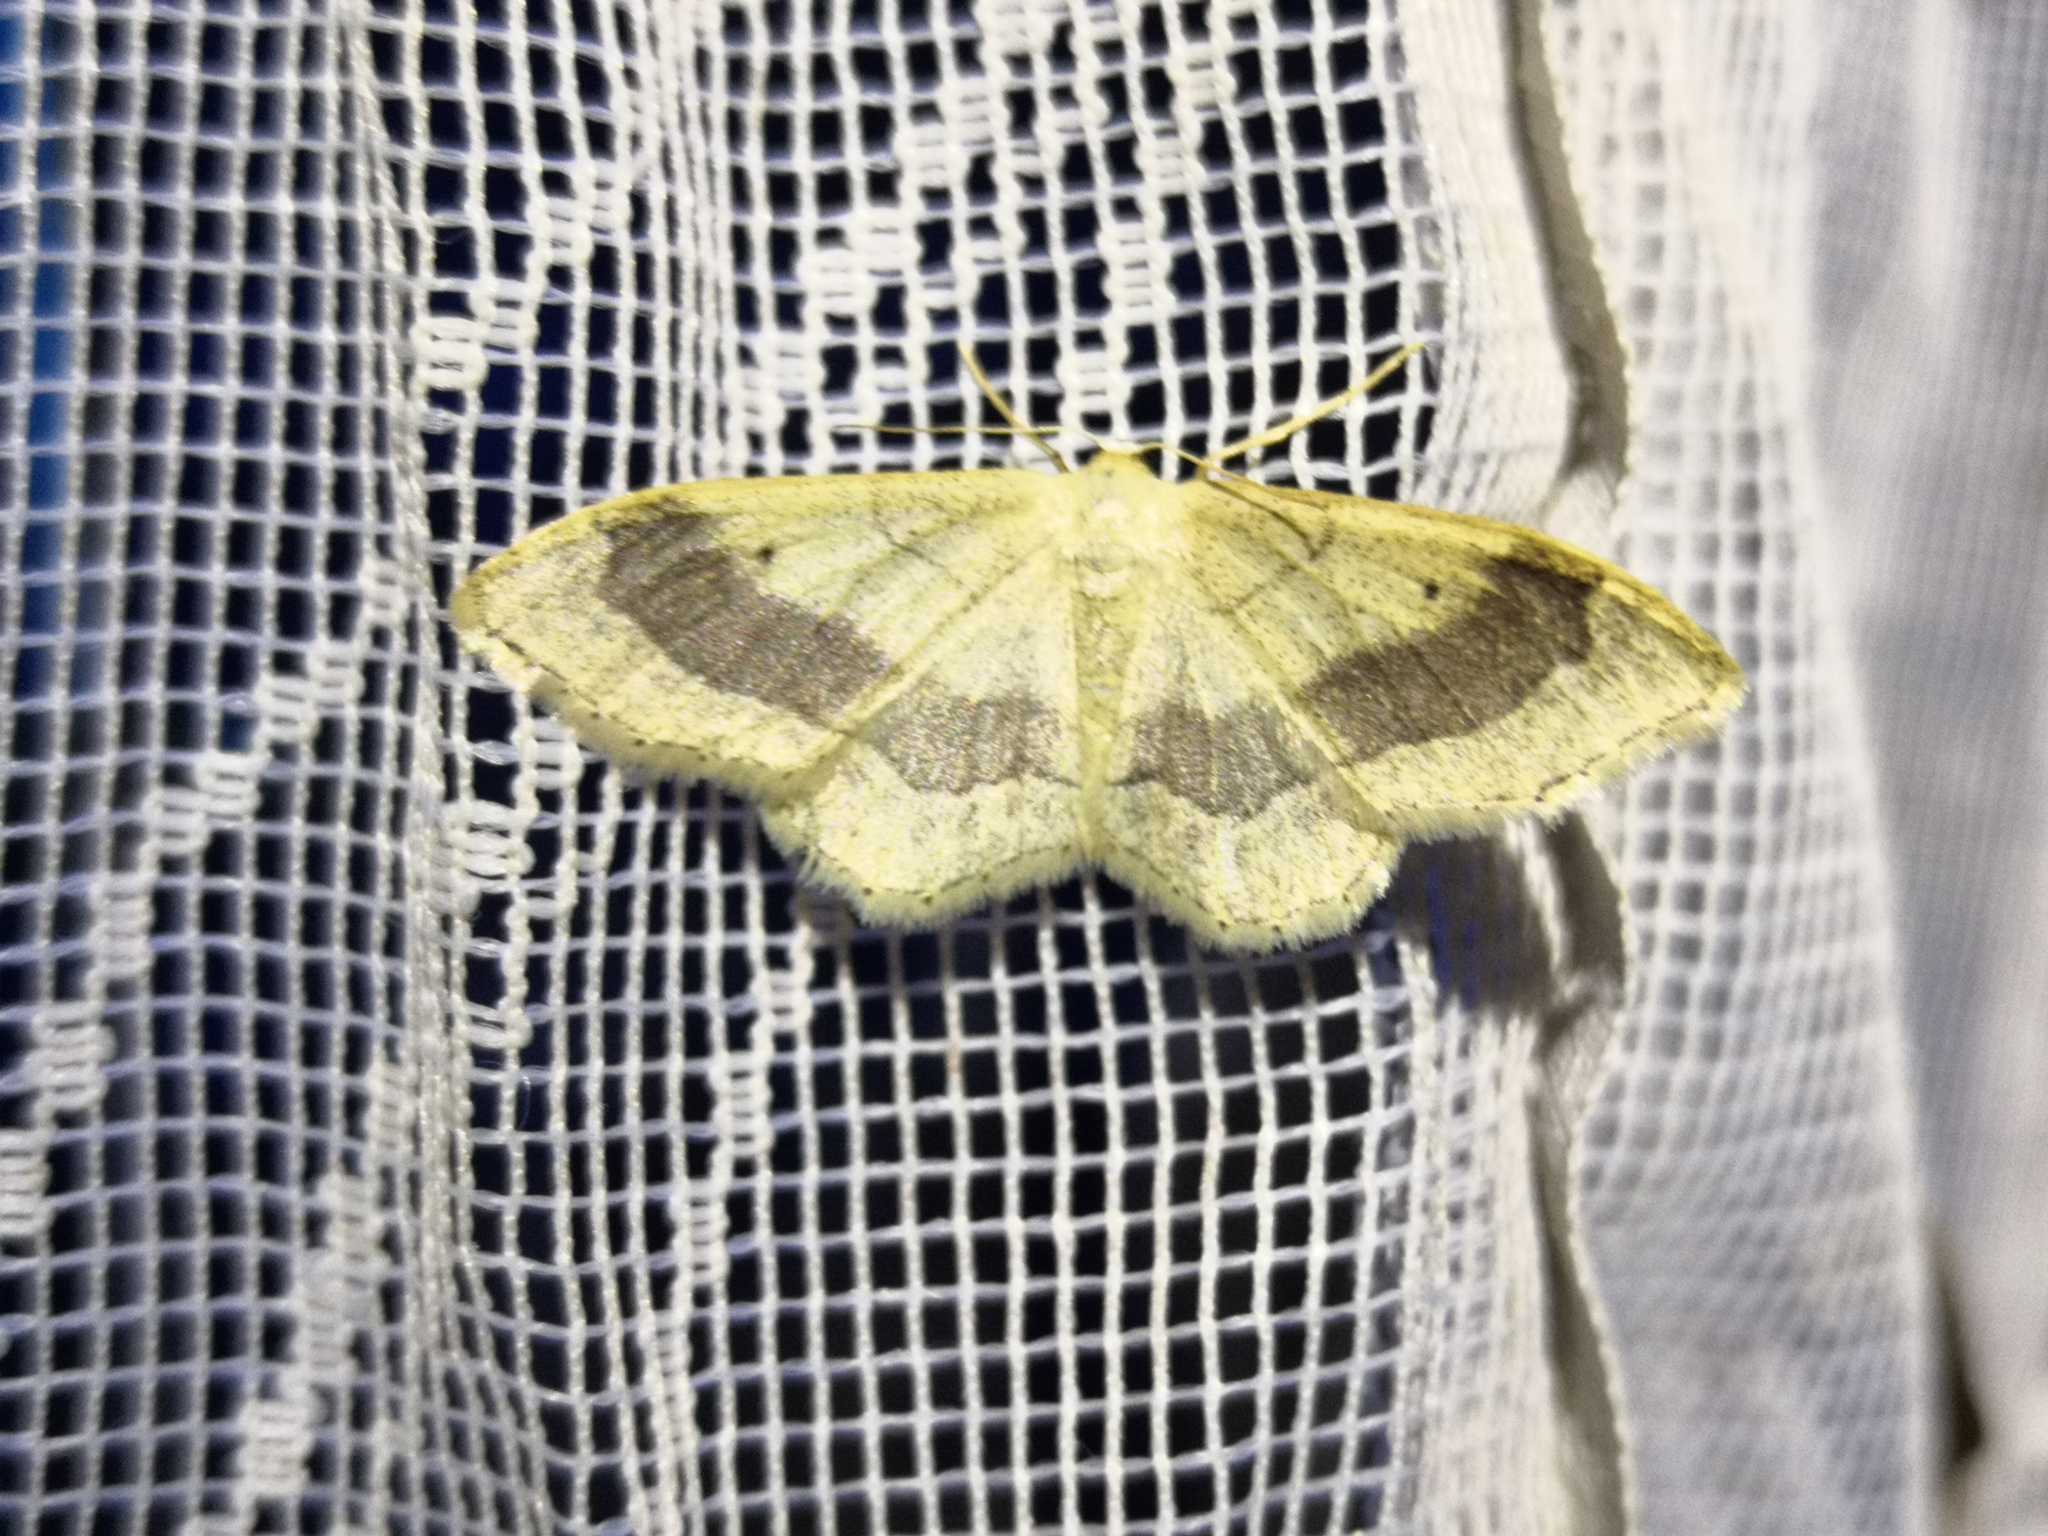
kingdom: Animalia
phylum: Arthropoda
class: Insecta
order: Lepidoptera
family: Geometridae
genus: Idaea
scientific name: Idaea aversata
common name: Riband wave
